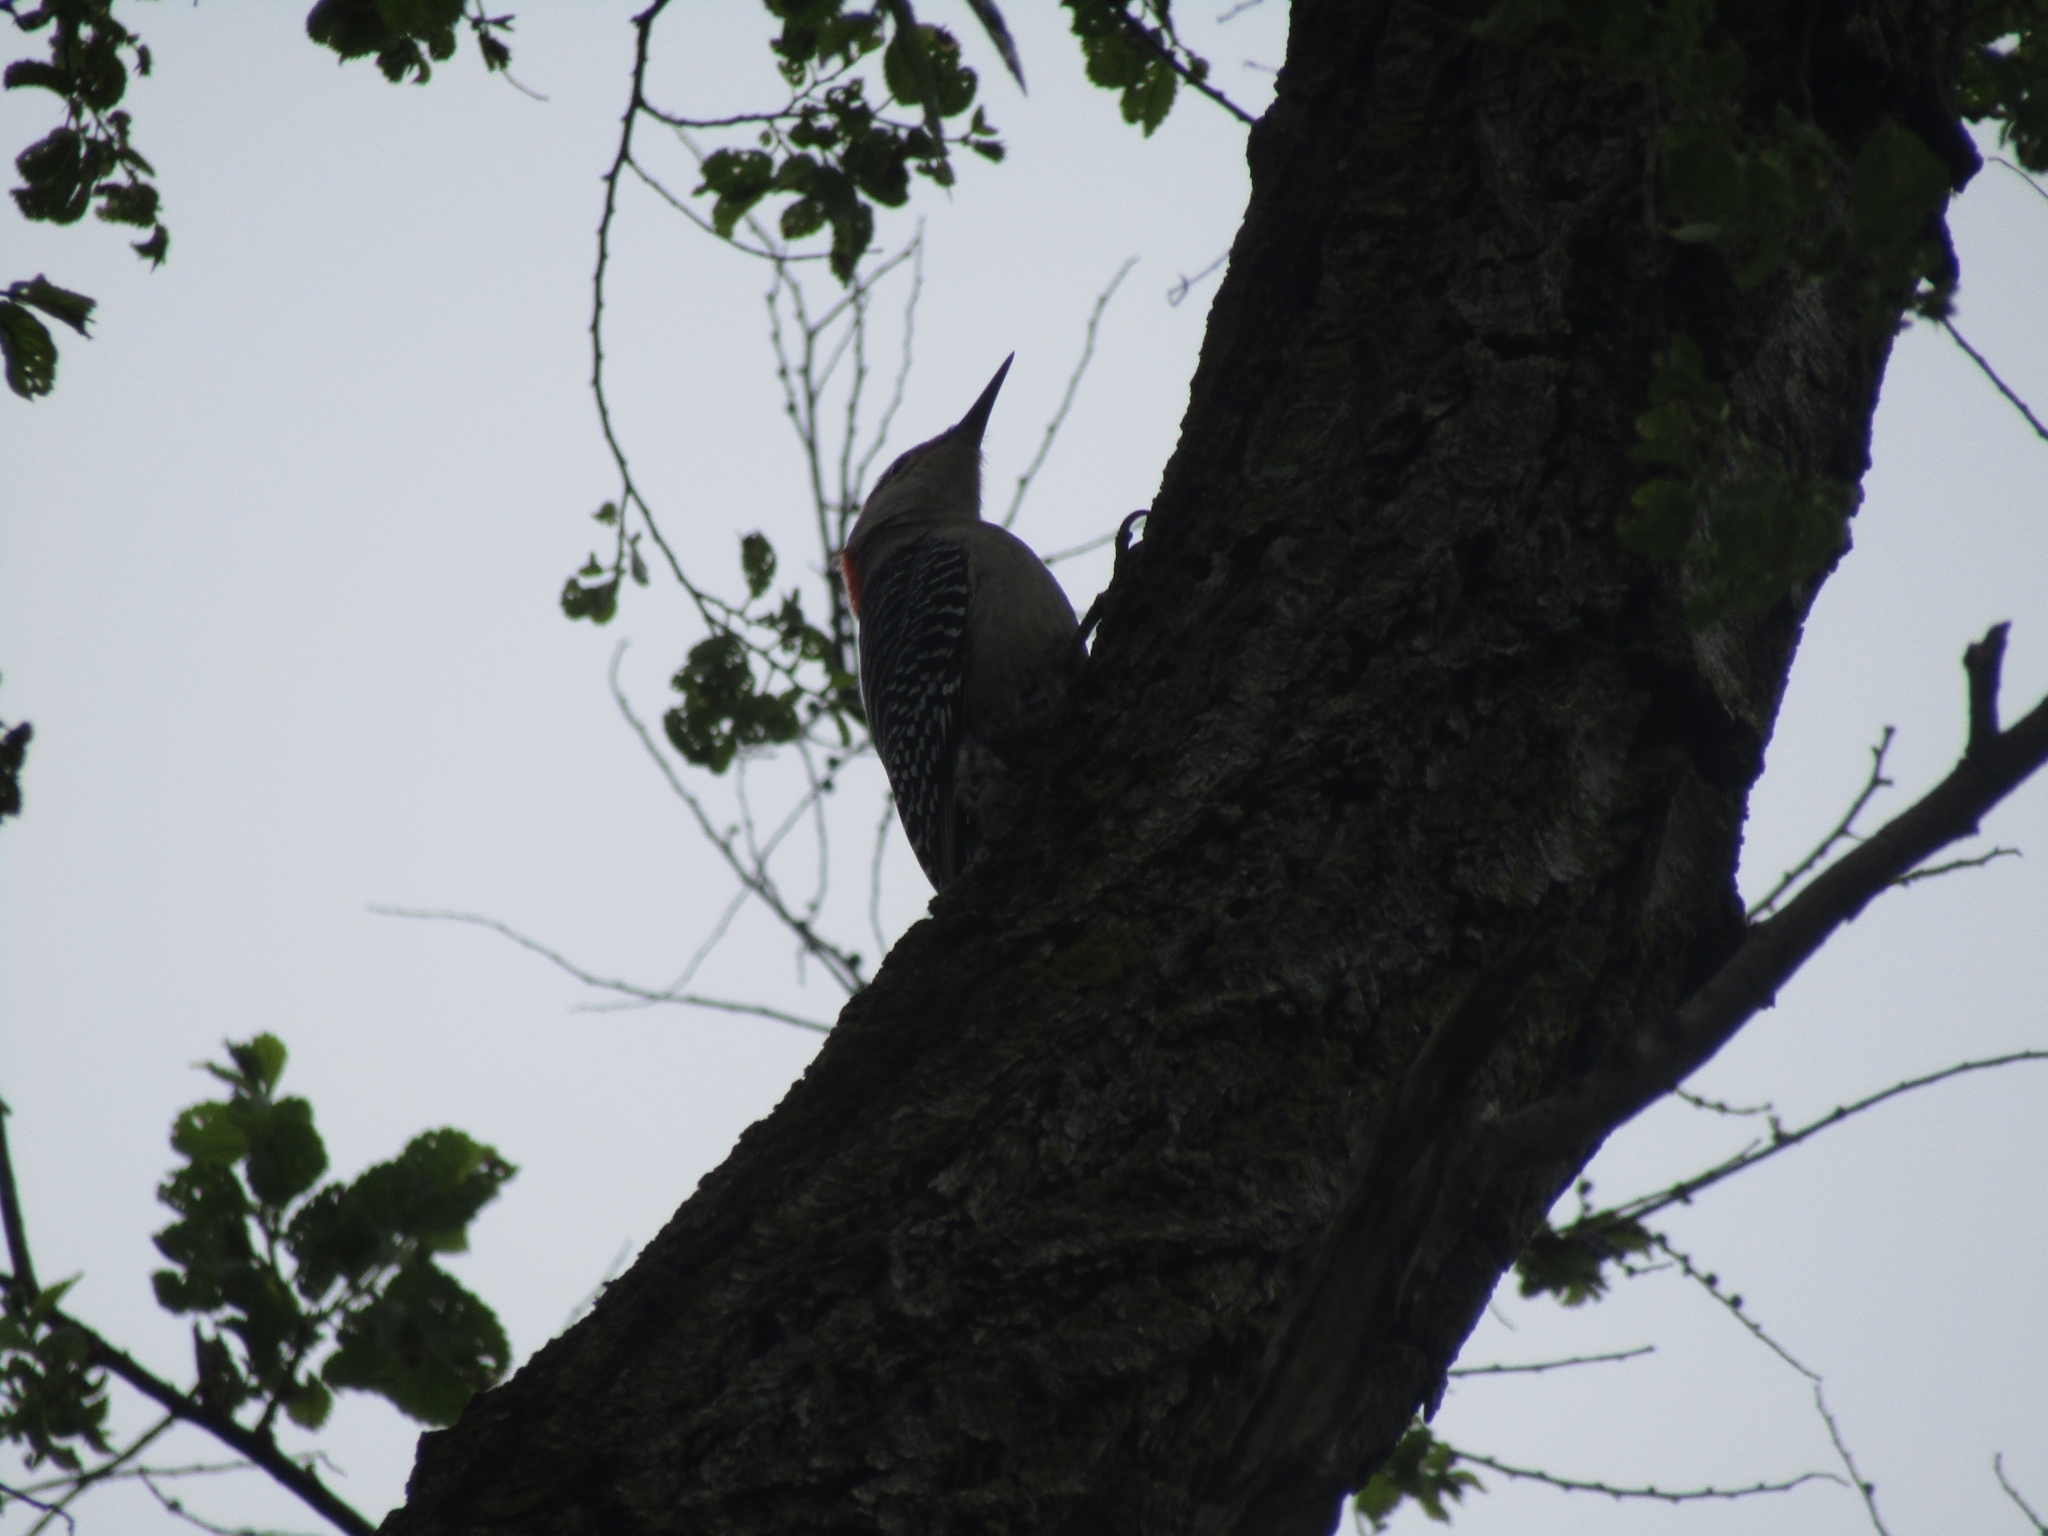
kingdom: Animalia
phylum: Chordata
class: Aves
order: Piciformes
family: Picidae
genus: Melanerpes
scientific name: Melanerpes carolinus
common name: Red-bellied woodpecker
